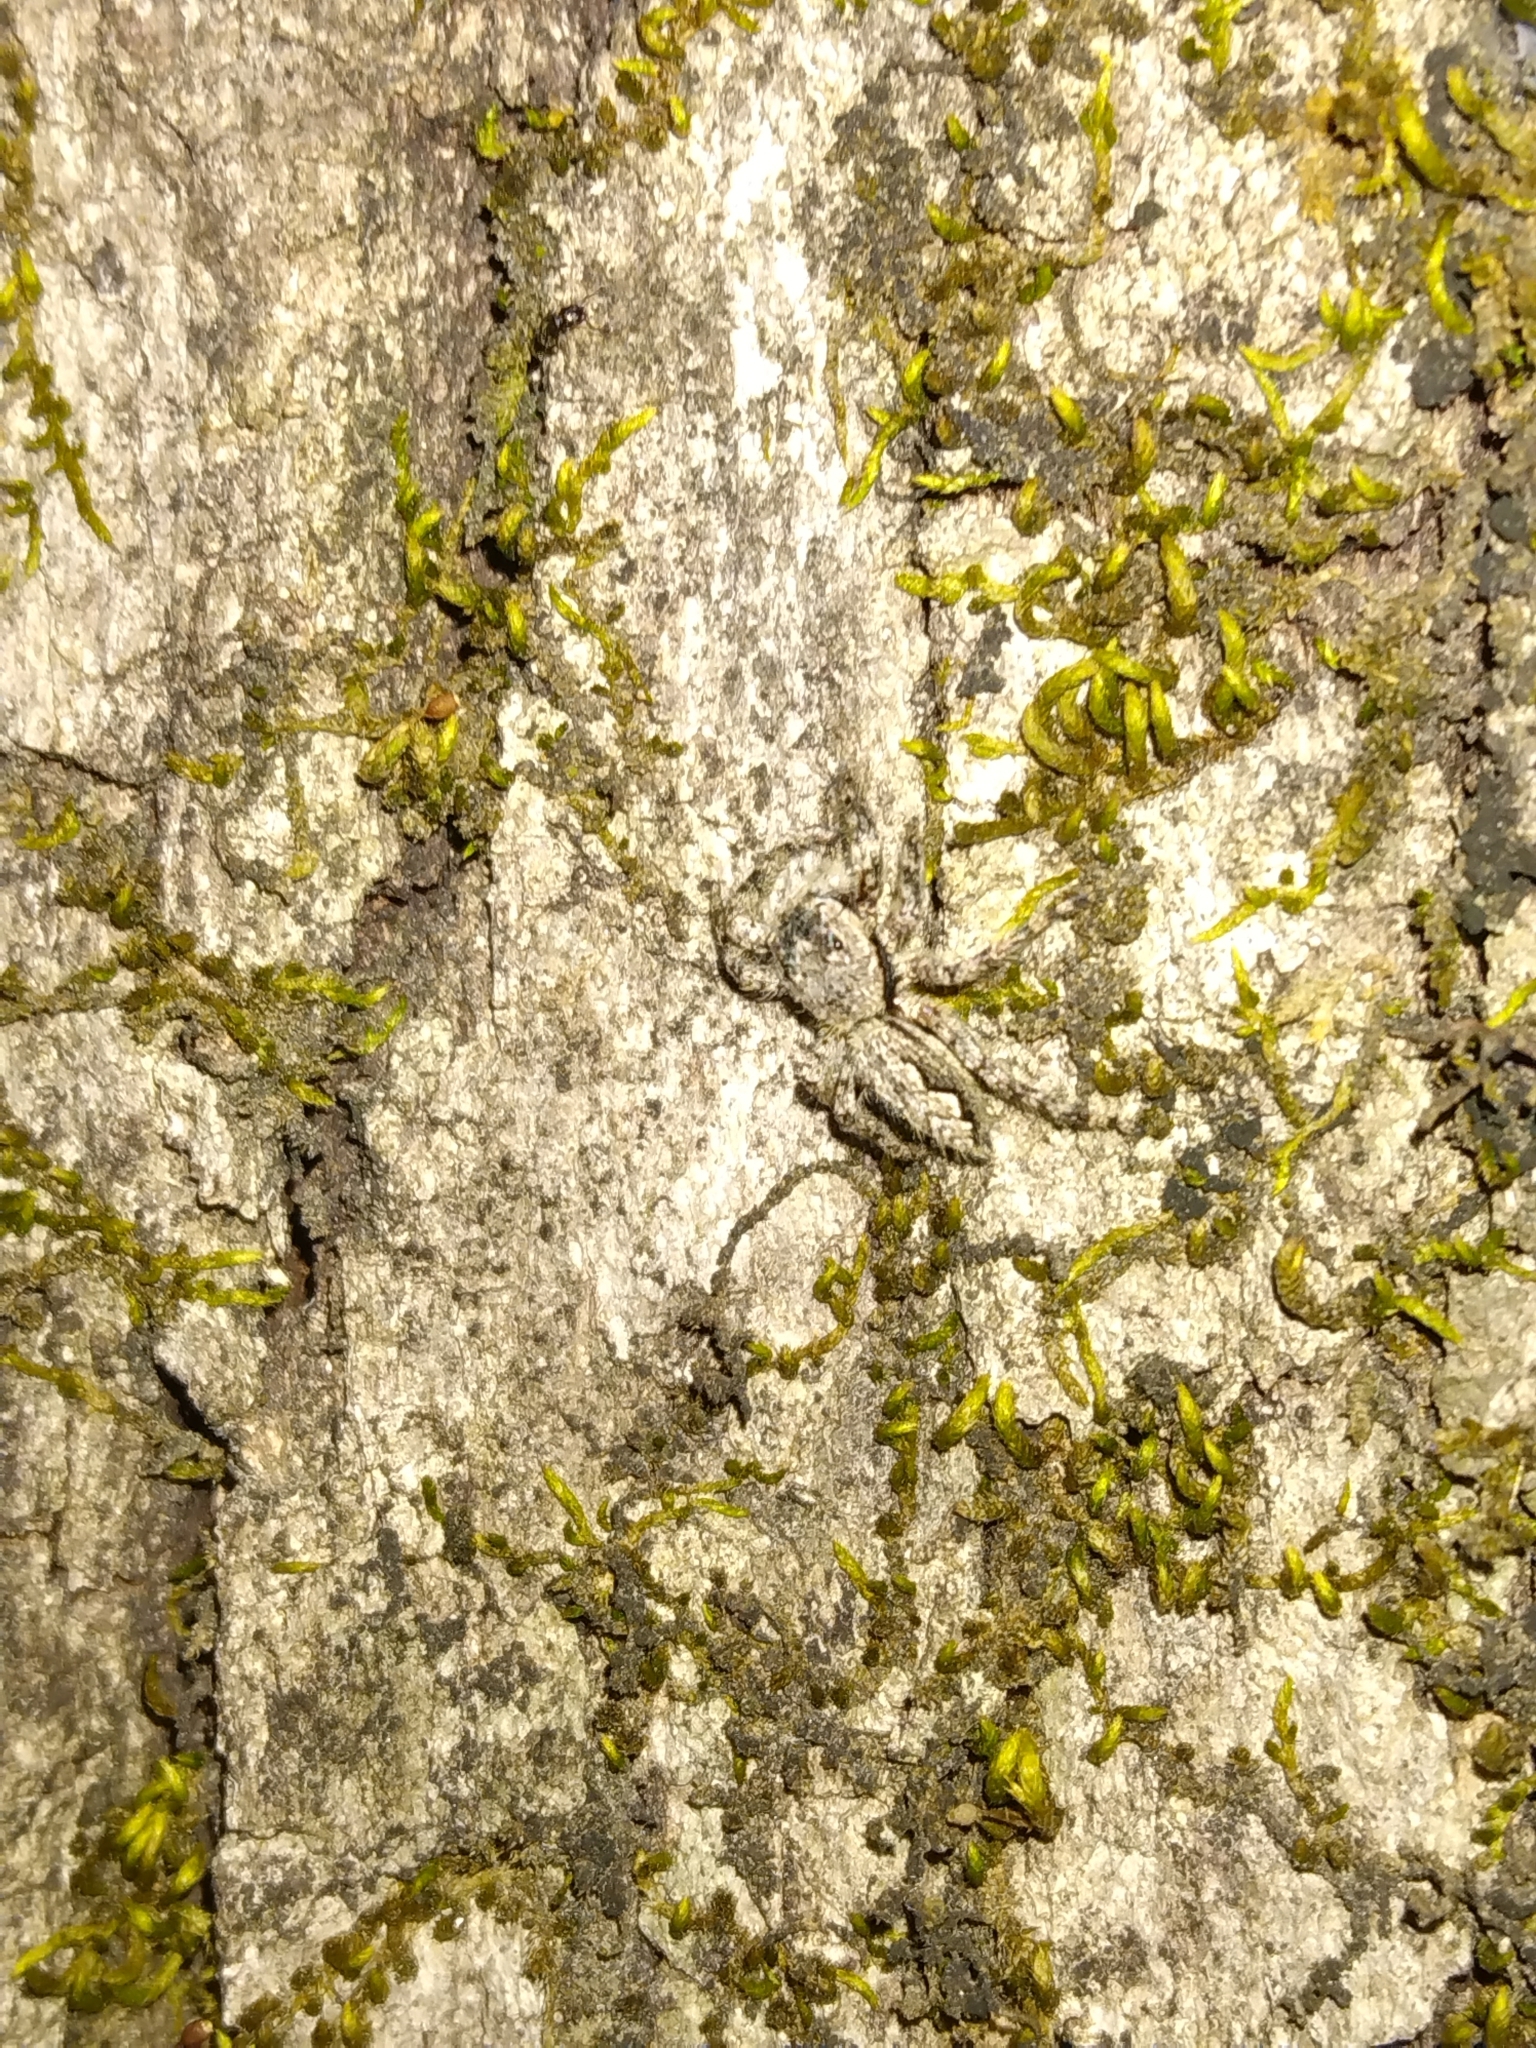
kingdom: Animalia
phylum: Arthropoda
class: Arachnida
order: Araneae
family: Salticidae
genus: Platycryptus
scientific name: Platycryptus undatus
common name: Tan jumping spider
